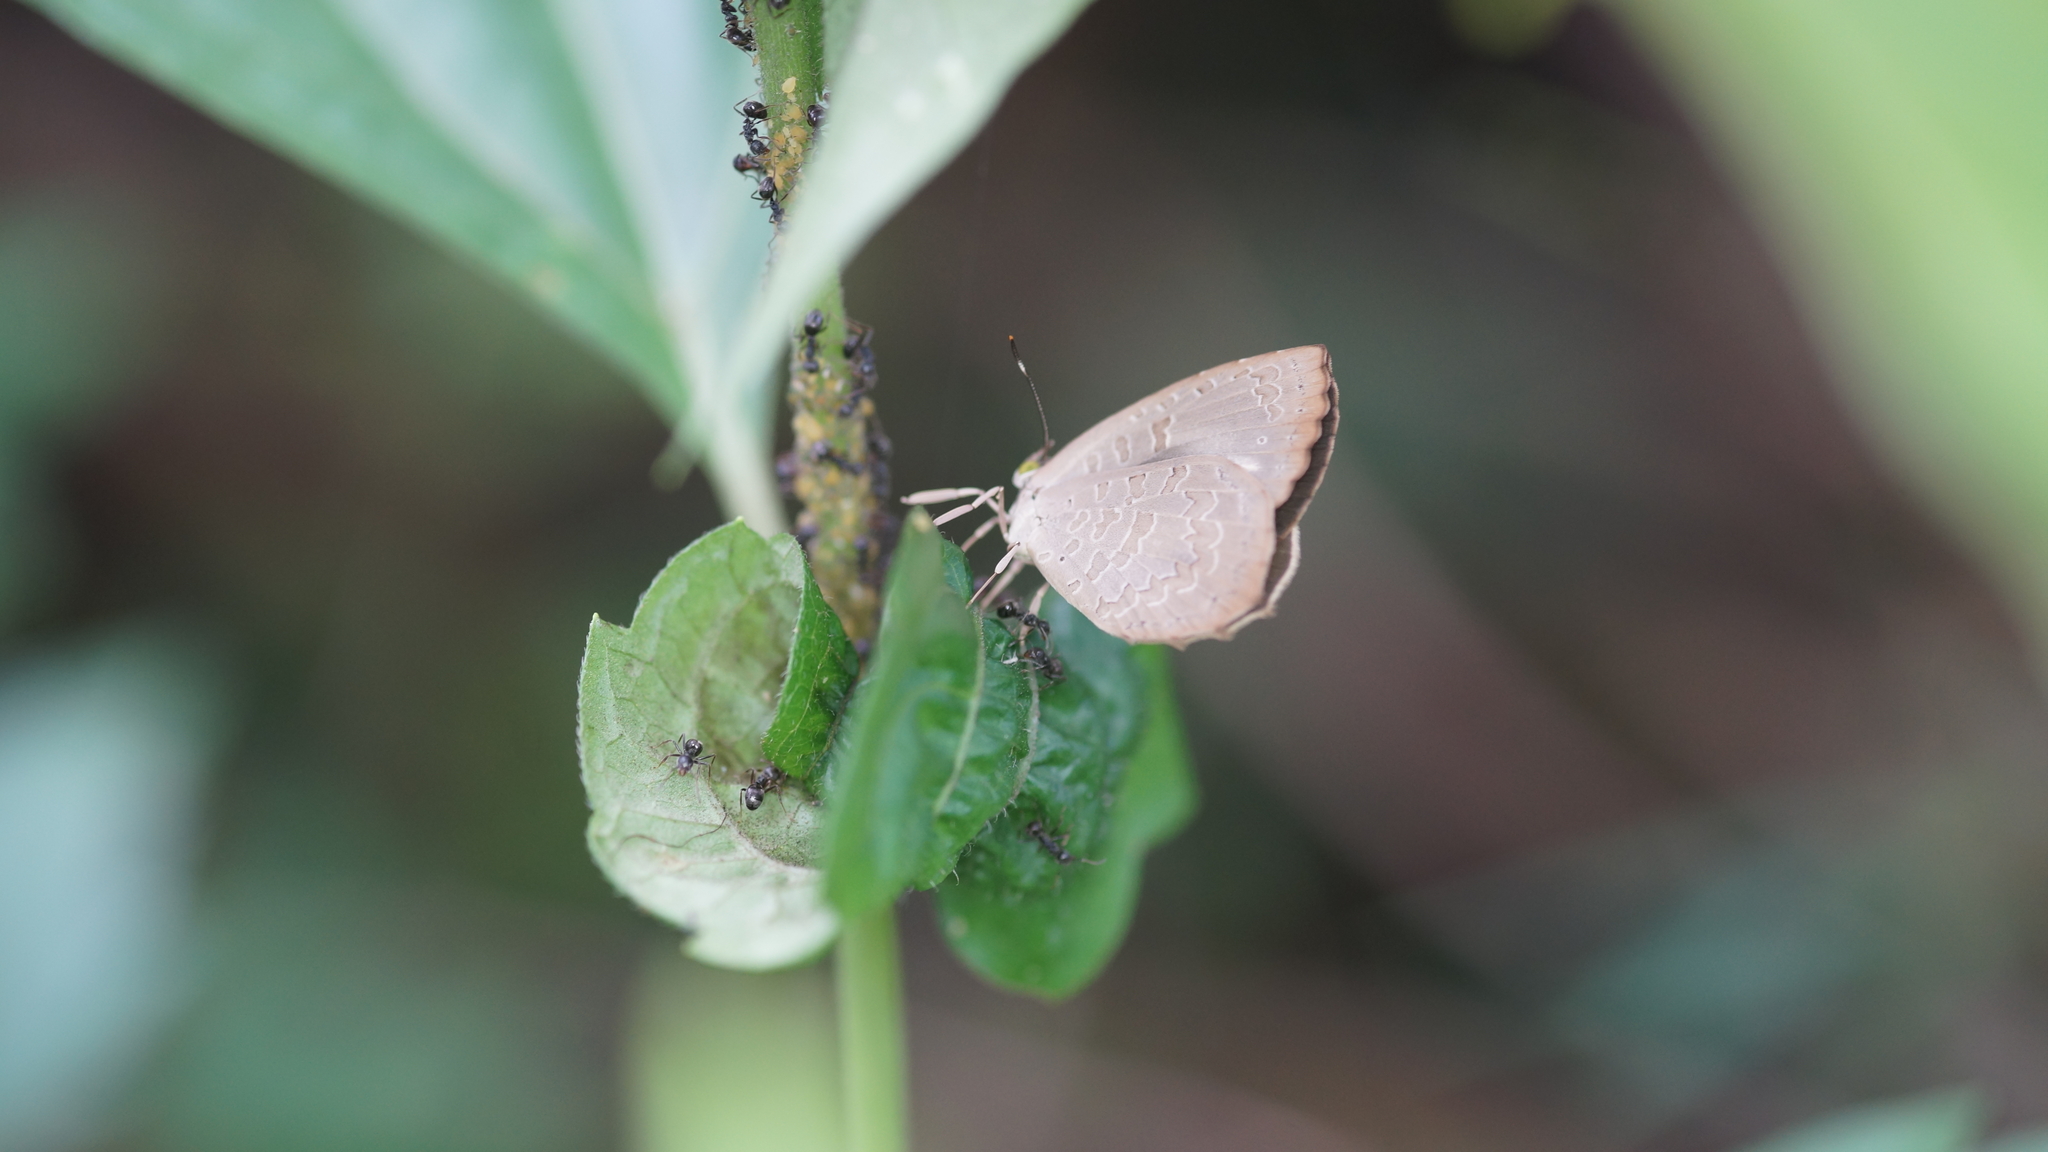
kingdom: Animalia
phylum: Arthropoda
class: Insecta
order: Lepidoptera
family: Lycaenidae
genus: Miletus
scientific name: Miletus chinensis
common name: Common brownie
